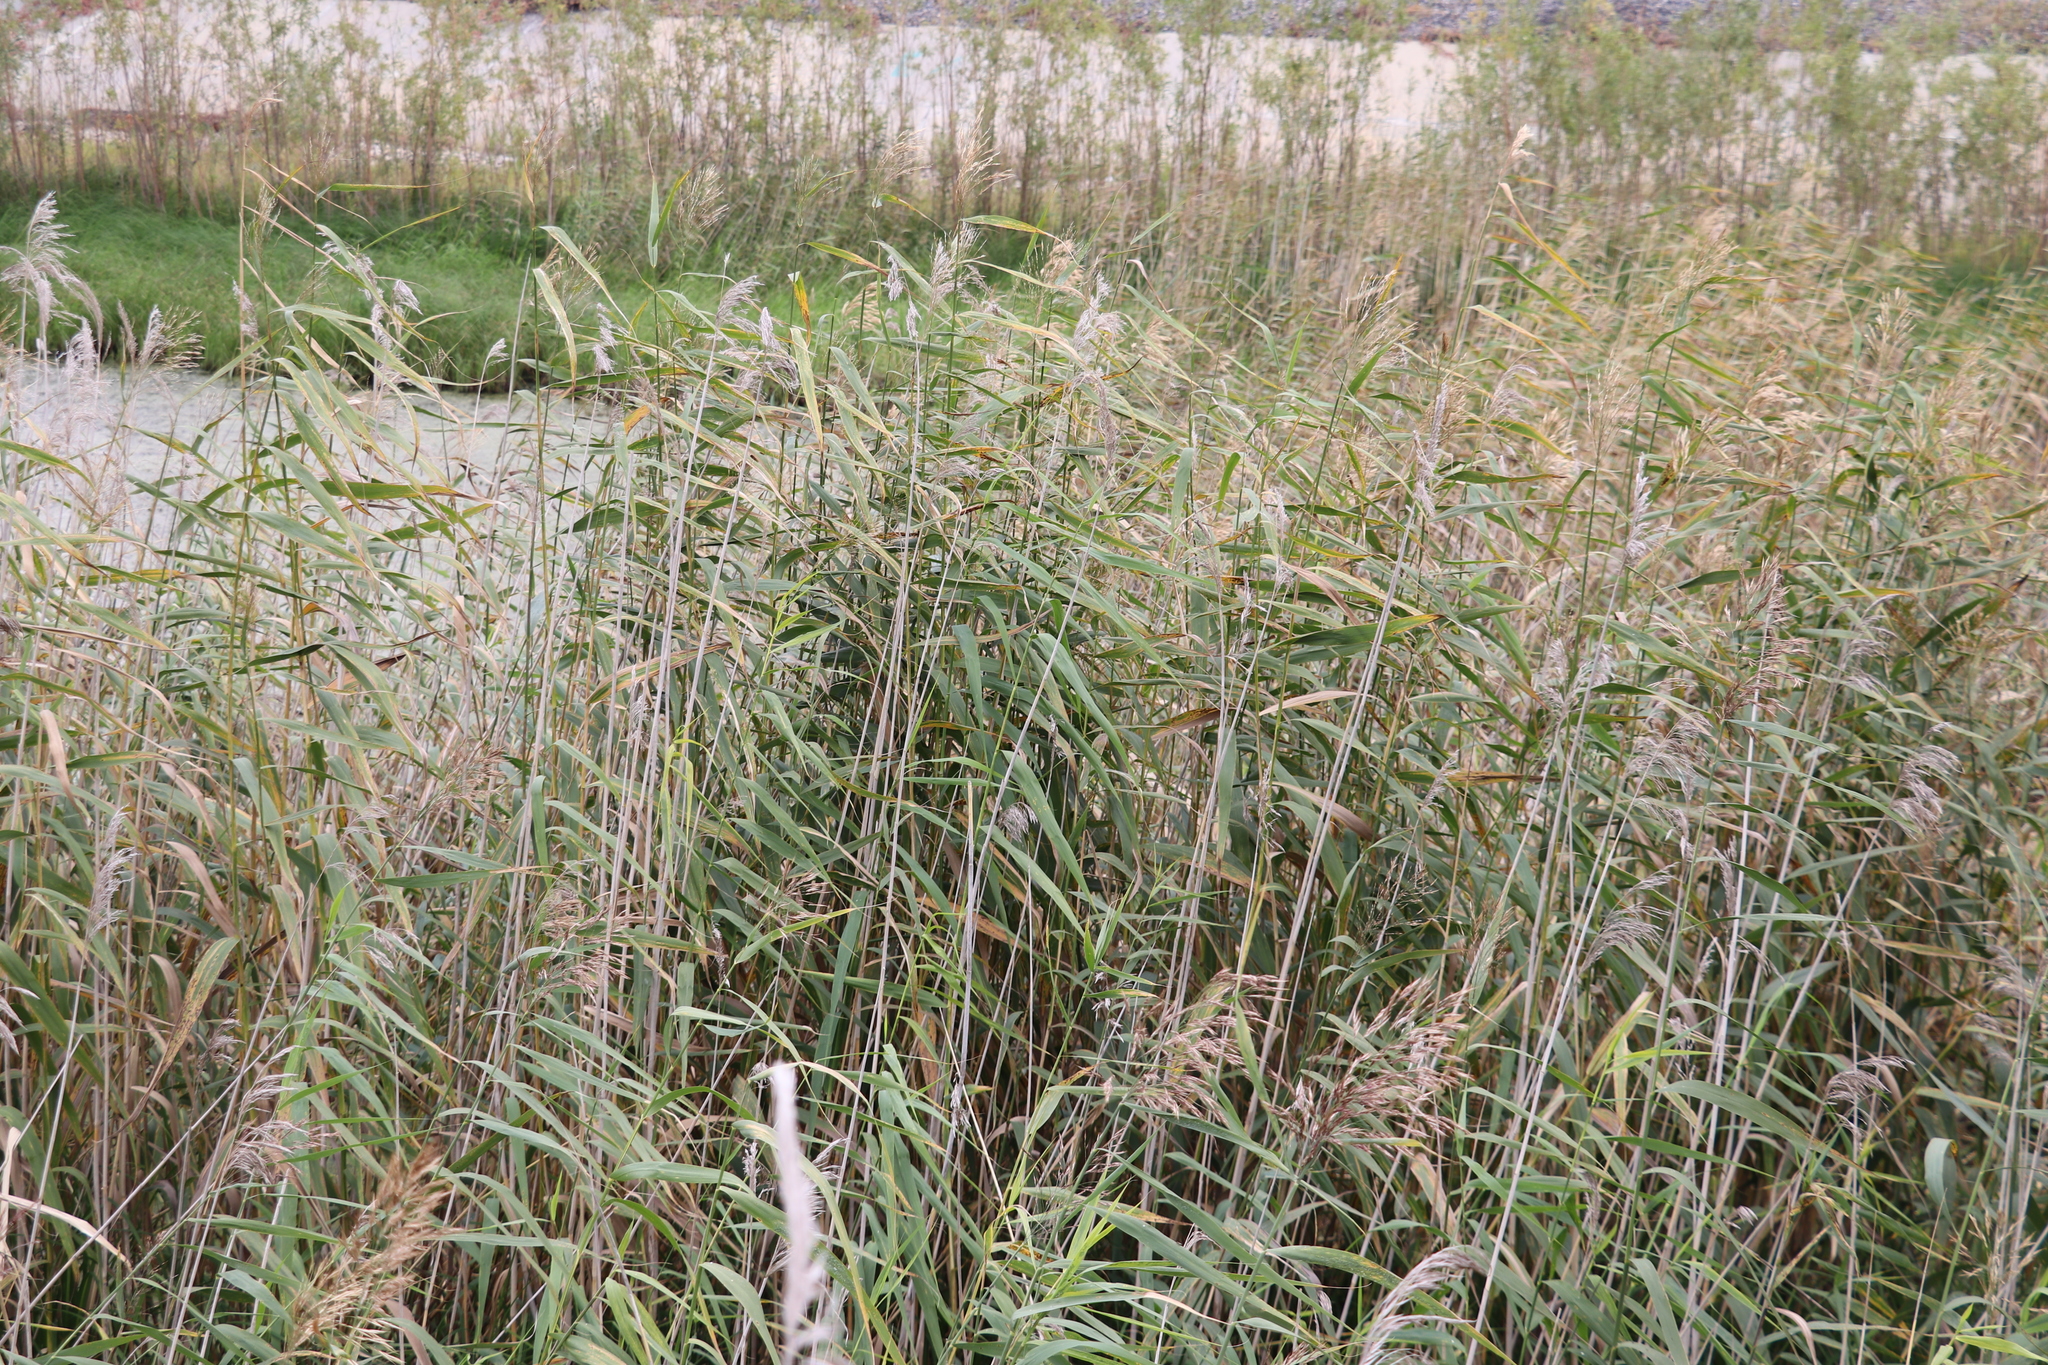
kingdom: Plantae
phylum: Tracheophyta
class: Liliopsida
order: Poales
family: Poaceae
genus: Phragmites
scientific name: Phragmites australis
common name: Common reed
